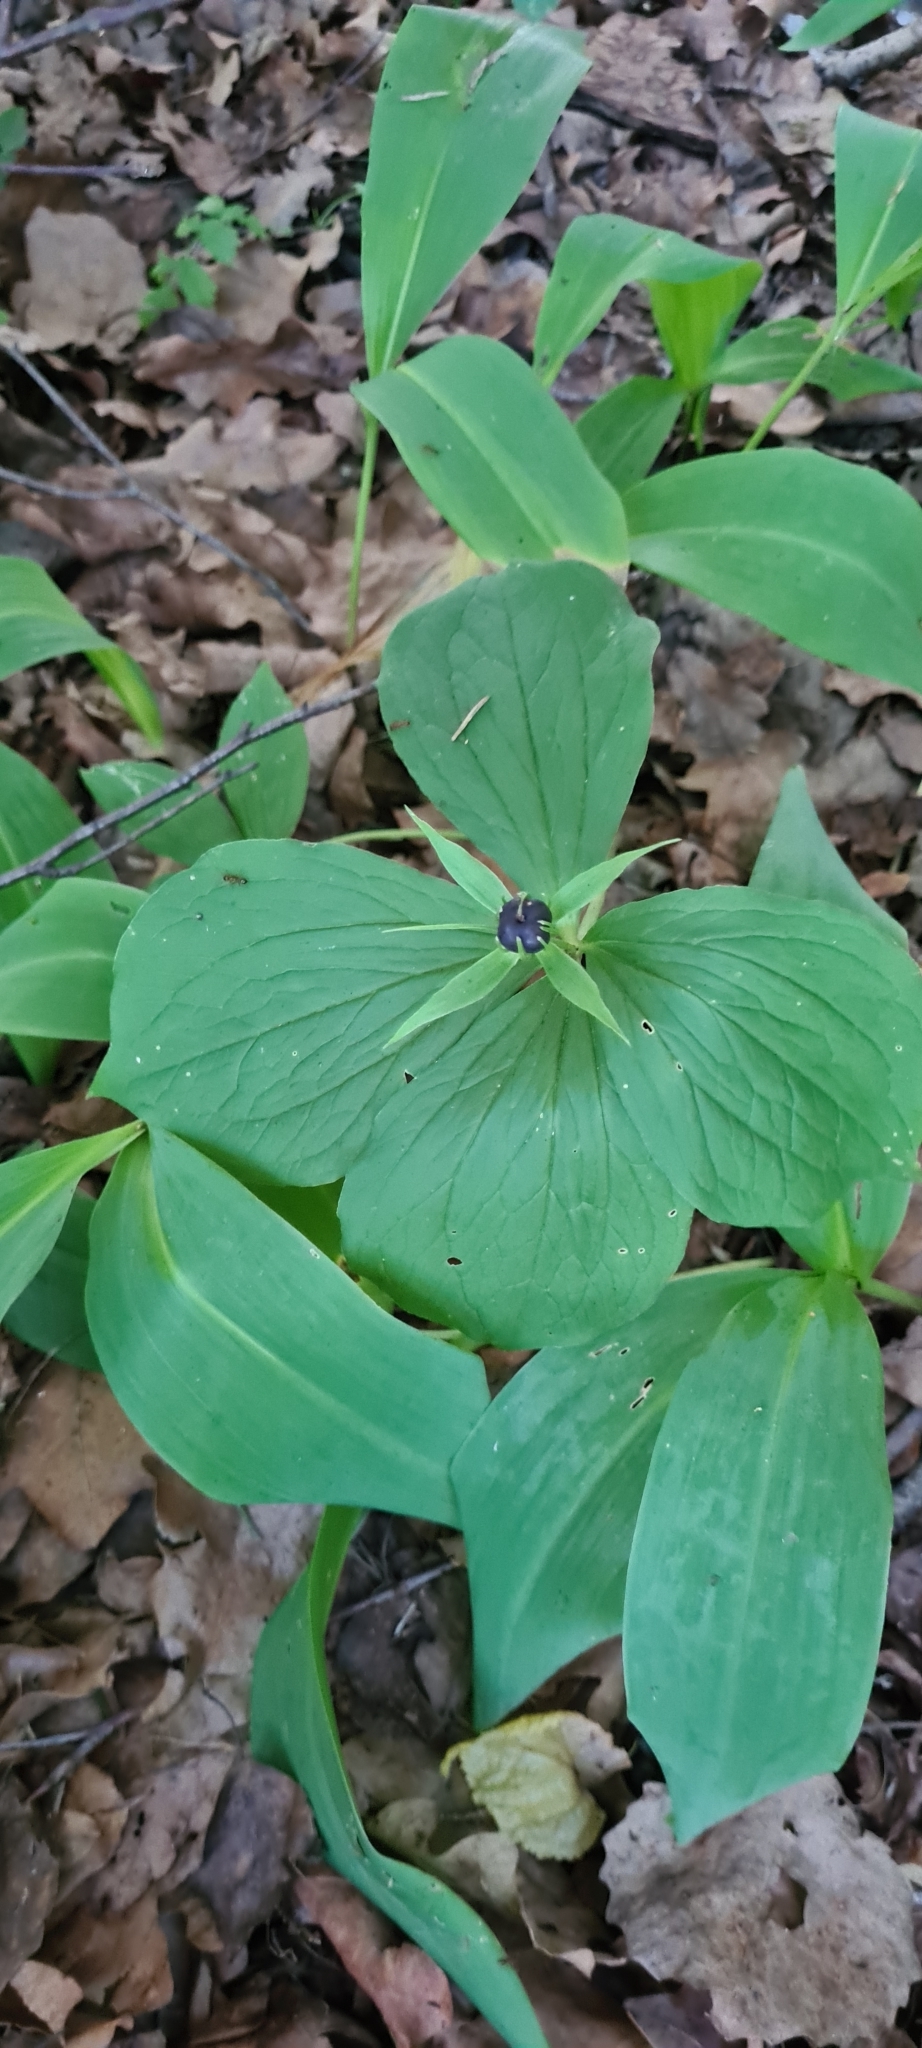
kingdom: Plantae
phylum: Tracheophyta
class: Liliopsida
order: Liliales
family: Melanthiaceae
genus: Paris
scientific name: Paris quadrifolia
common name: Herb-paris
